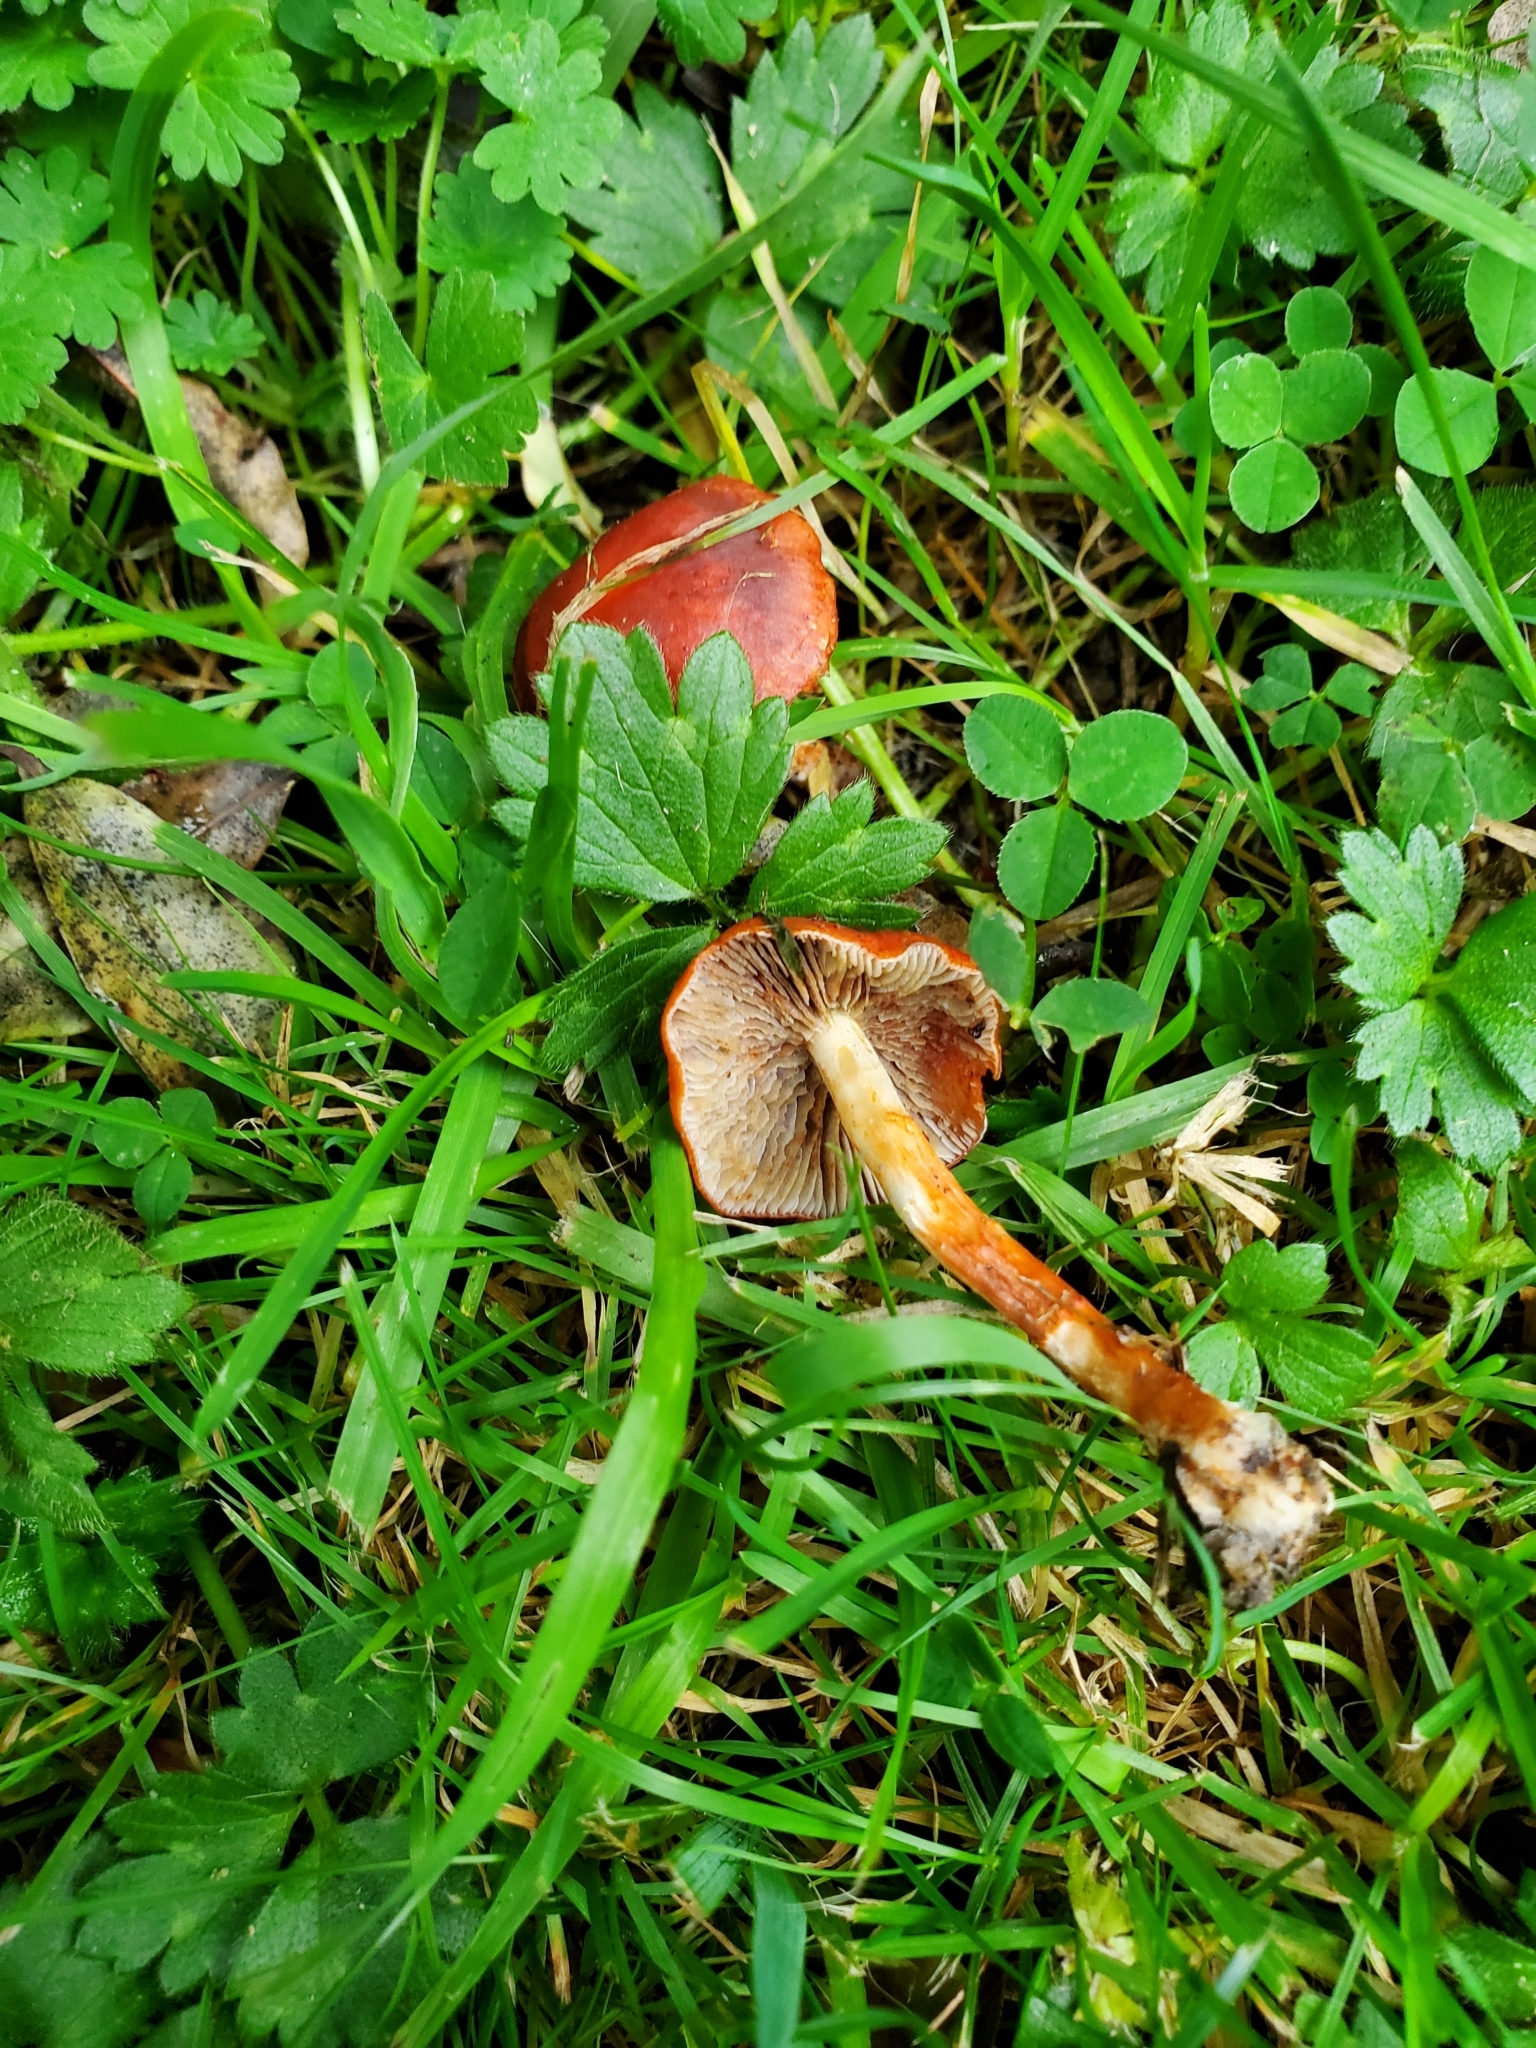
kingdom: Fungi
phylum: Basidiomycota
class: Agaricomycetes
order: Agaricales
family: Strophariaceae
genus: Leratiomyces
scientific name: Leratiomyces ceres
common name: Redlead roundhead
